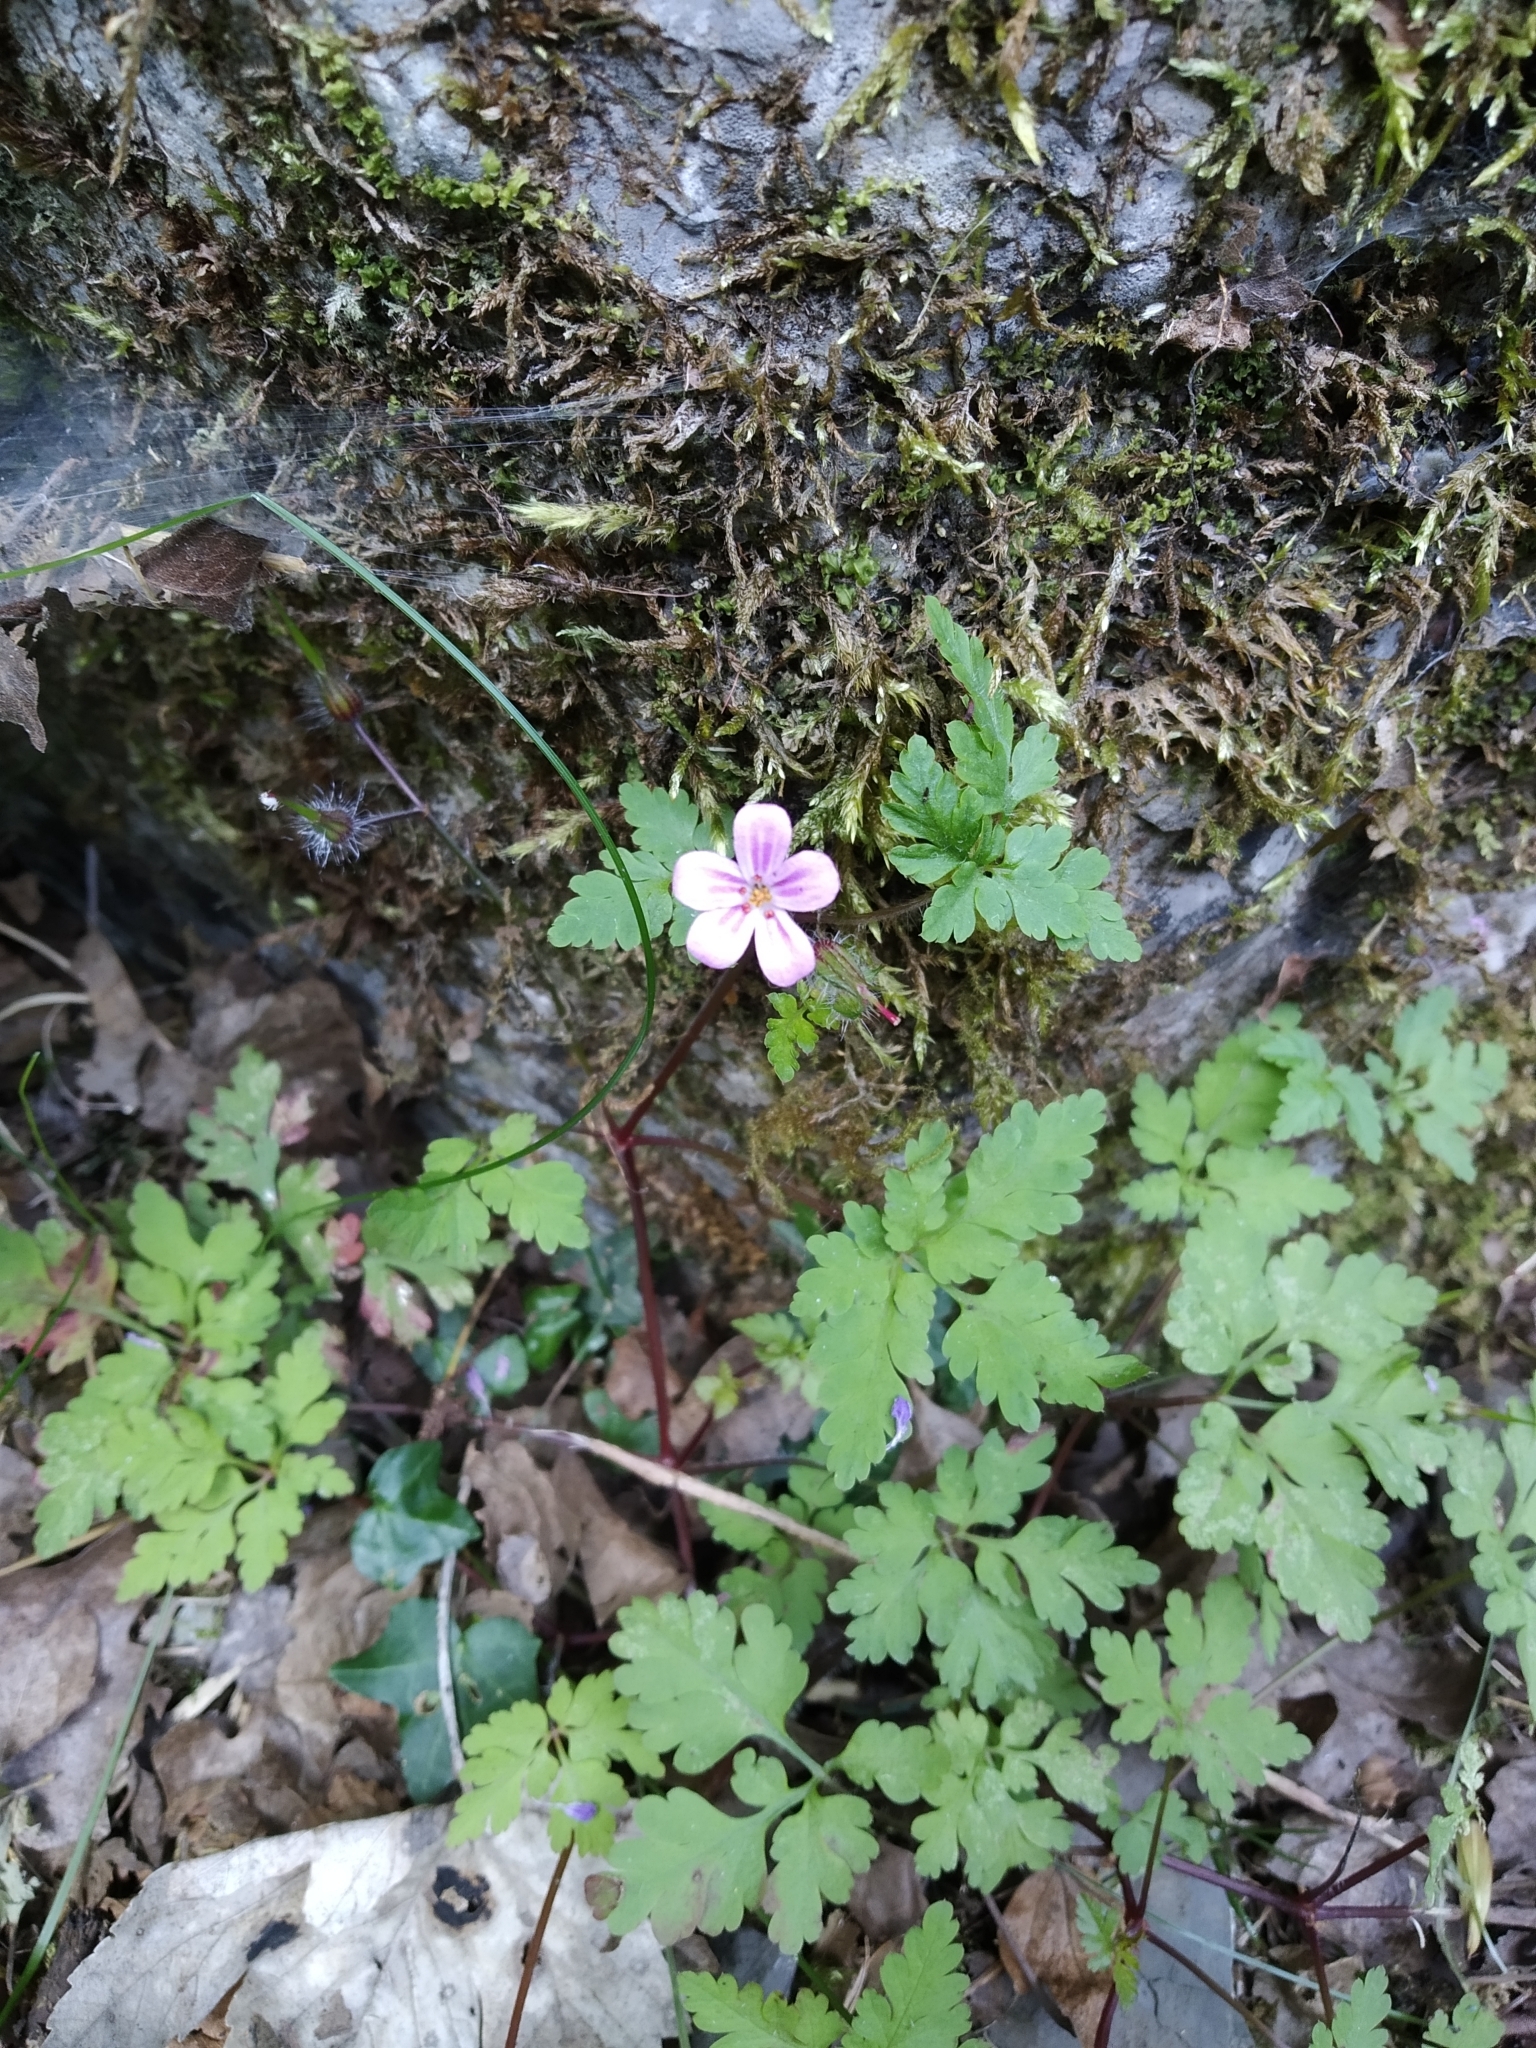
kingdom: Plantae
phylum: Tracheophyta
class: Magnoliopsida
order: Geraniales
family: Geraniaceae
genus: Geranium
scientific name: Geranium robertianum
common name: Herb-robert
